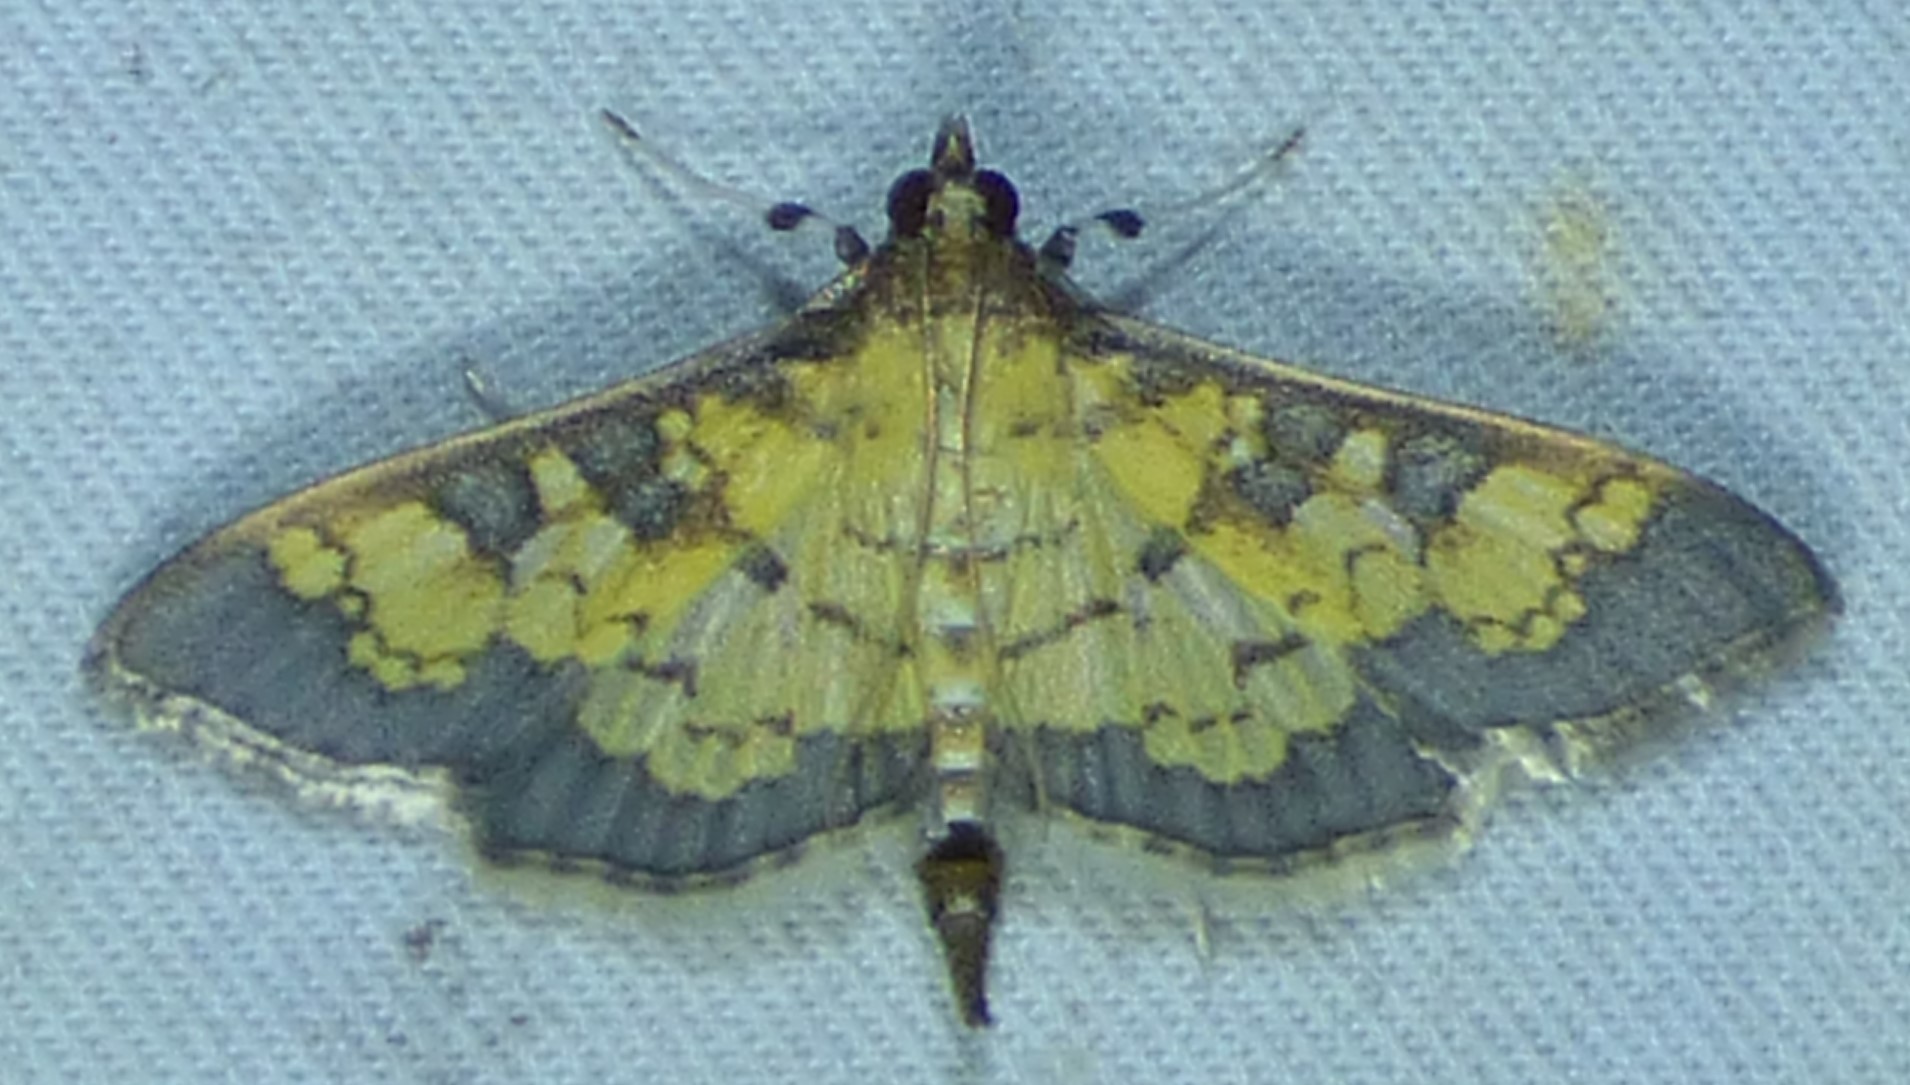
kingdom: Animalia
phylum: Arthropoda
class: Insecta
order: Lepidoptera
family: Crambidae
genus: Epipagis
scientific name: Epipagis adipaloides
